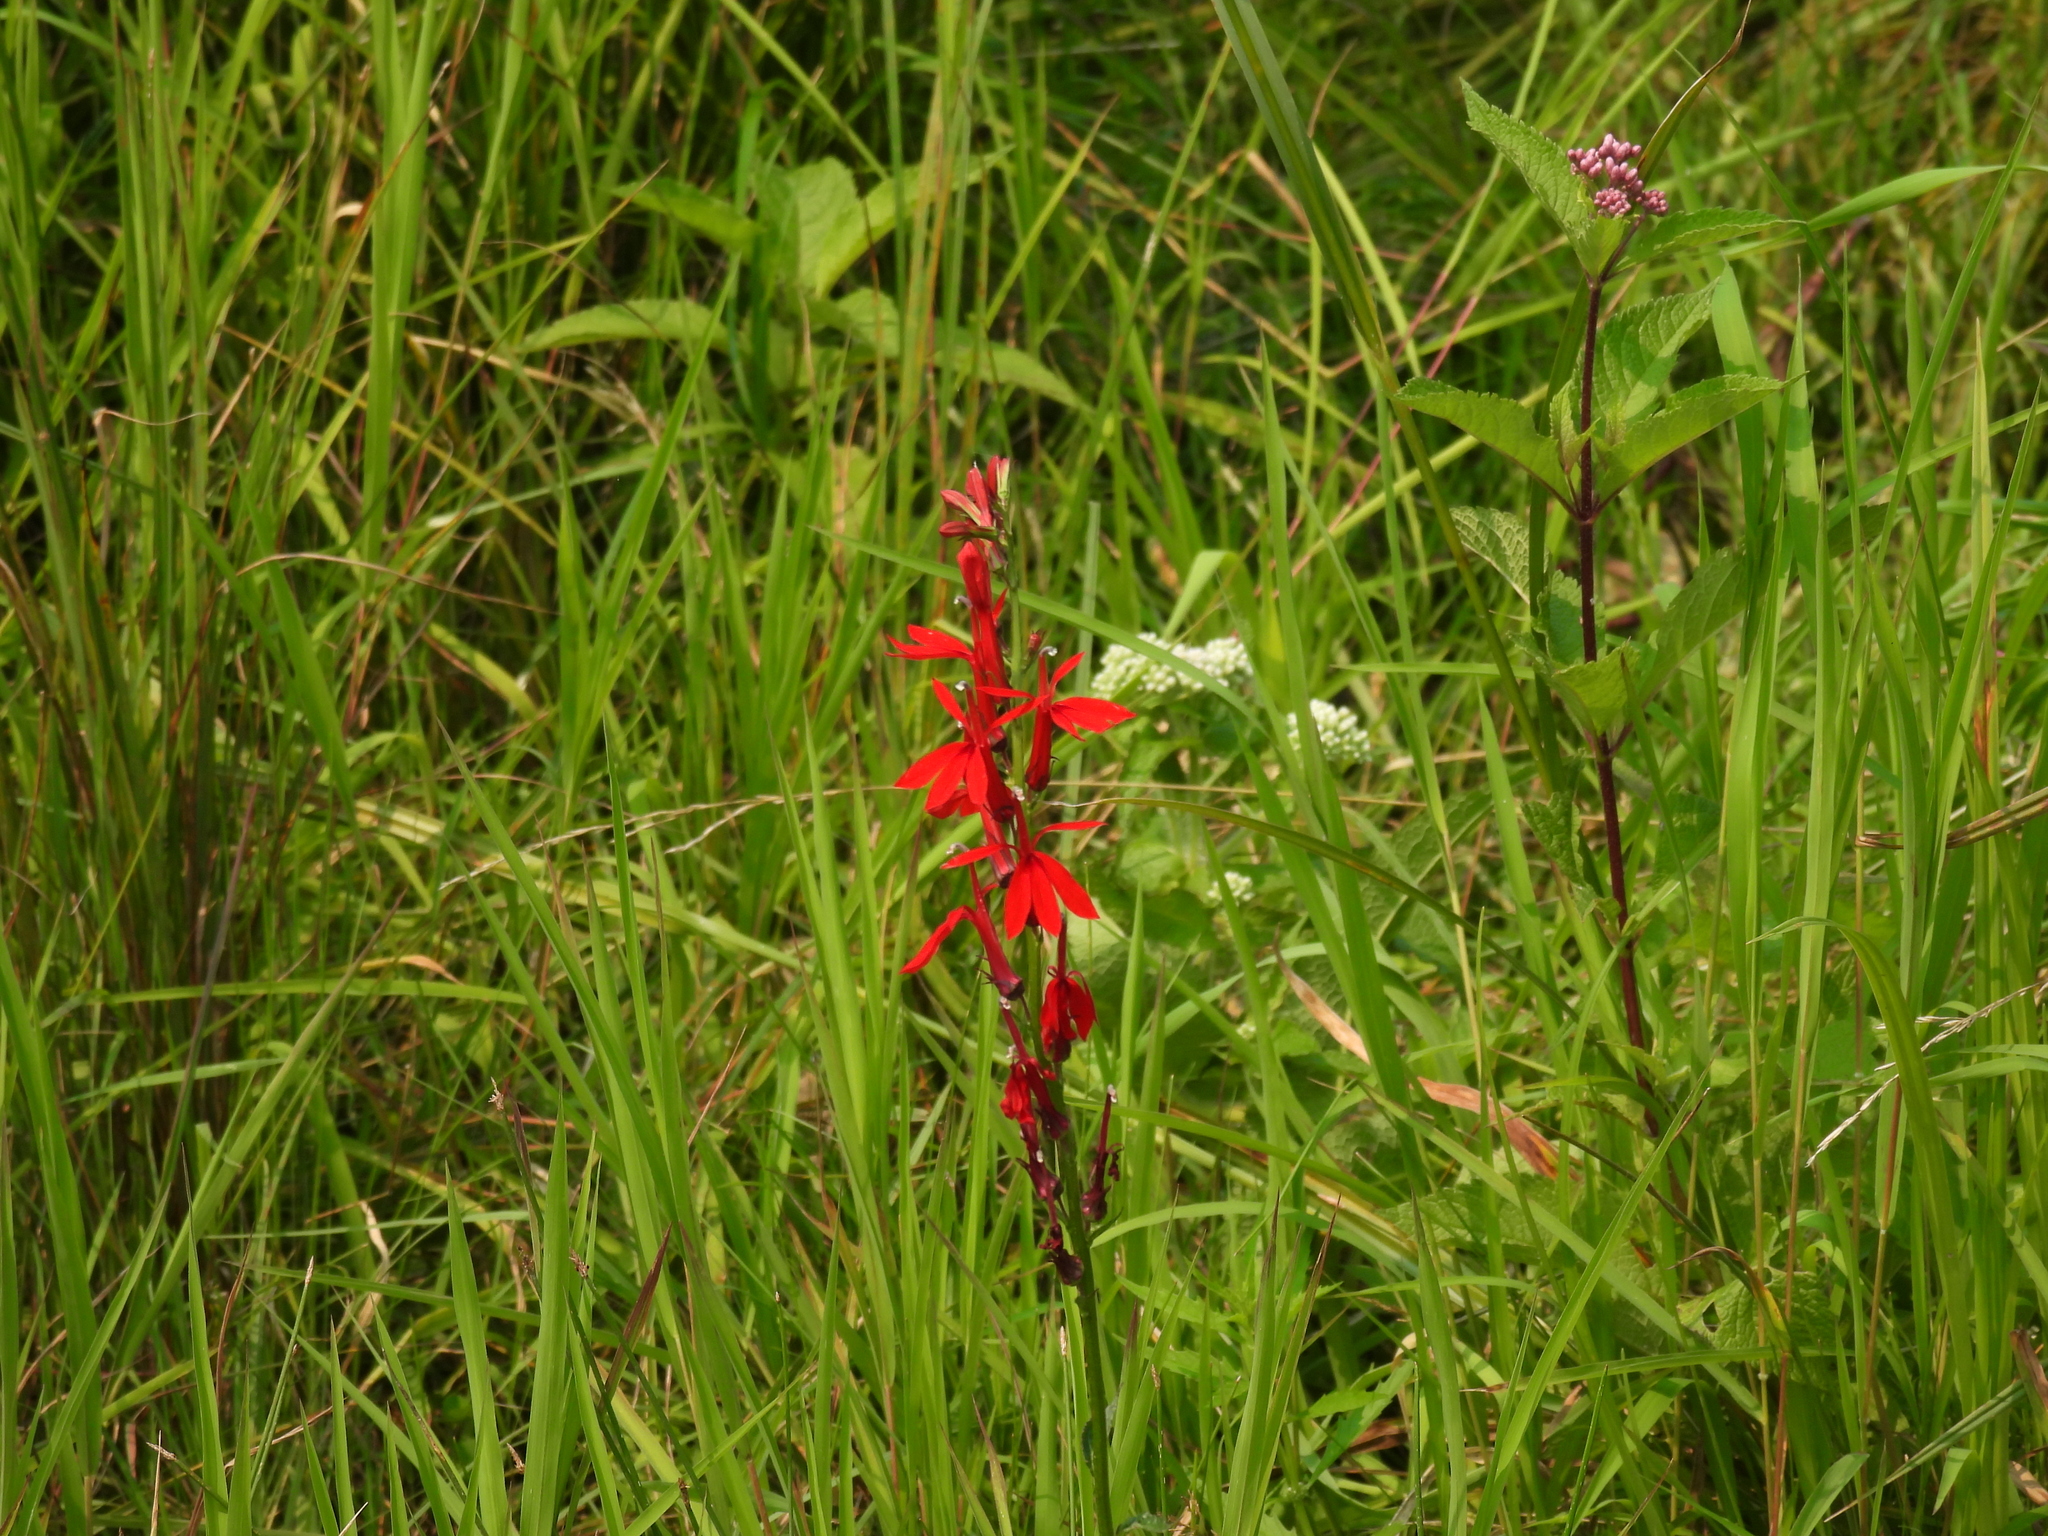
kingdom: Plantae
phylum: Tracheophyta
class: Magnoliopsida
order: Asterales
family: Campanulaceae
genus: Lobelia
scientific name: Lobelia cardinalis
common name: Cardinal flower
